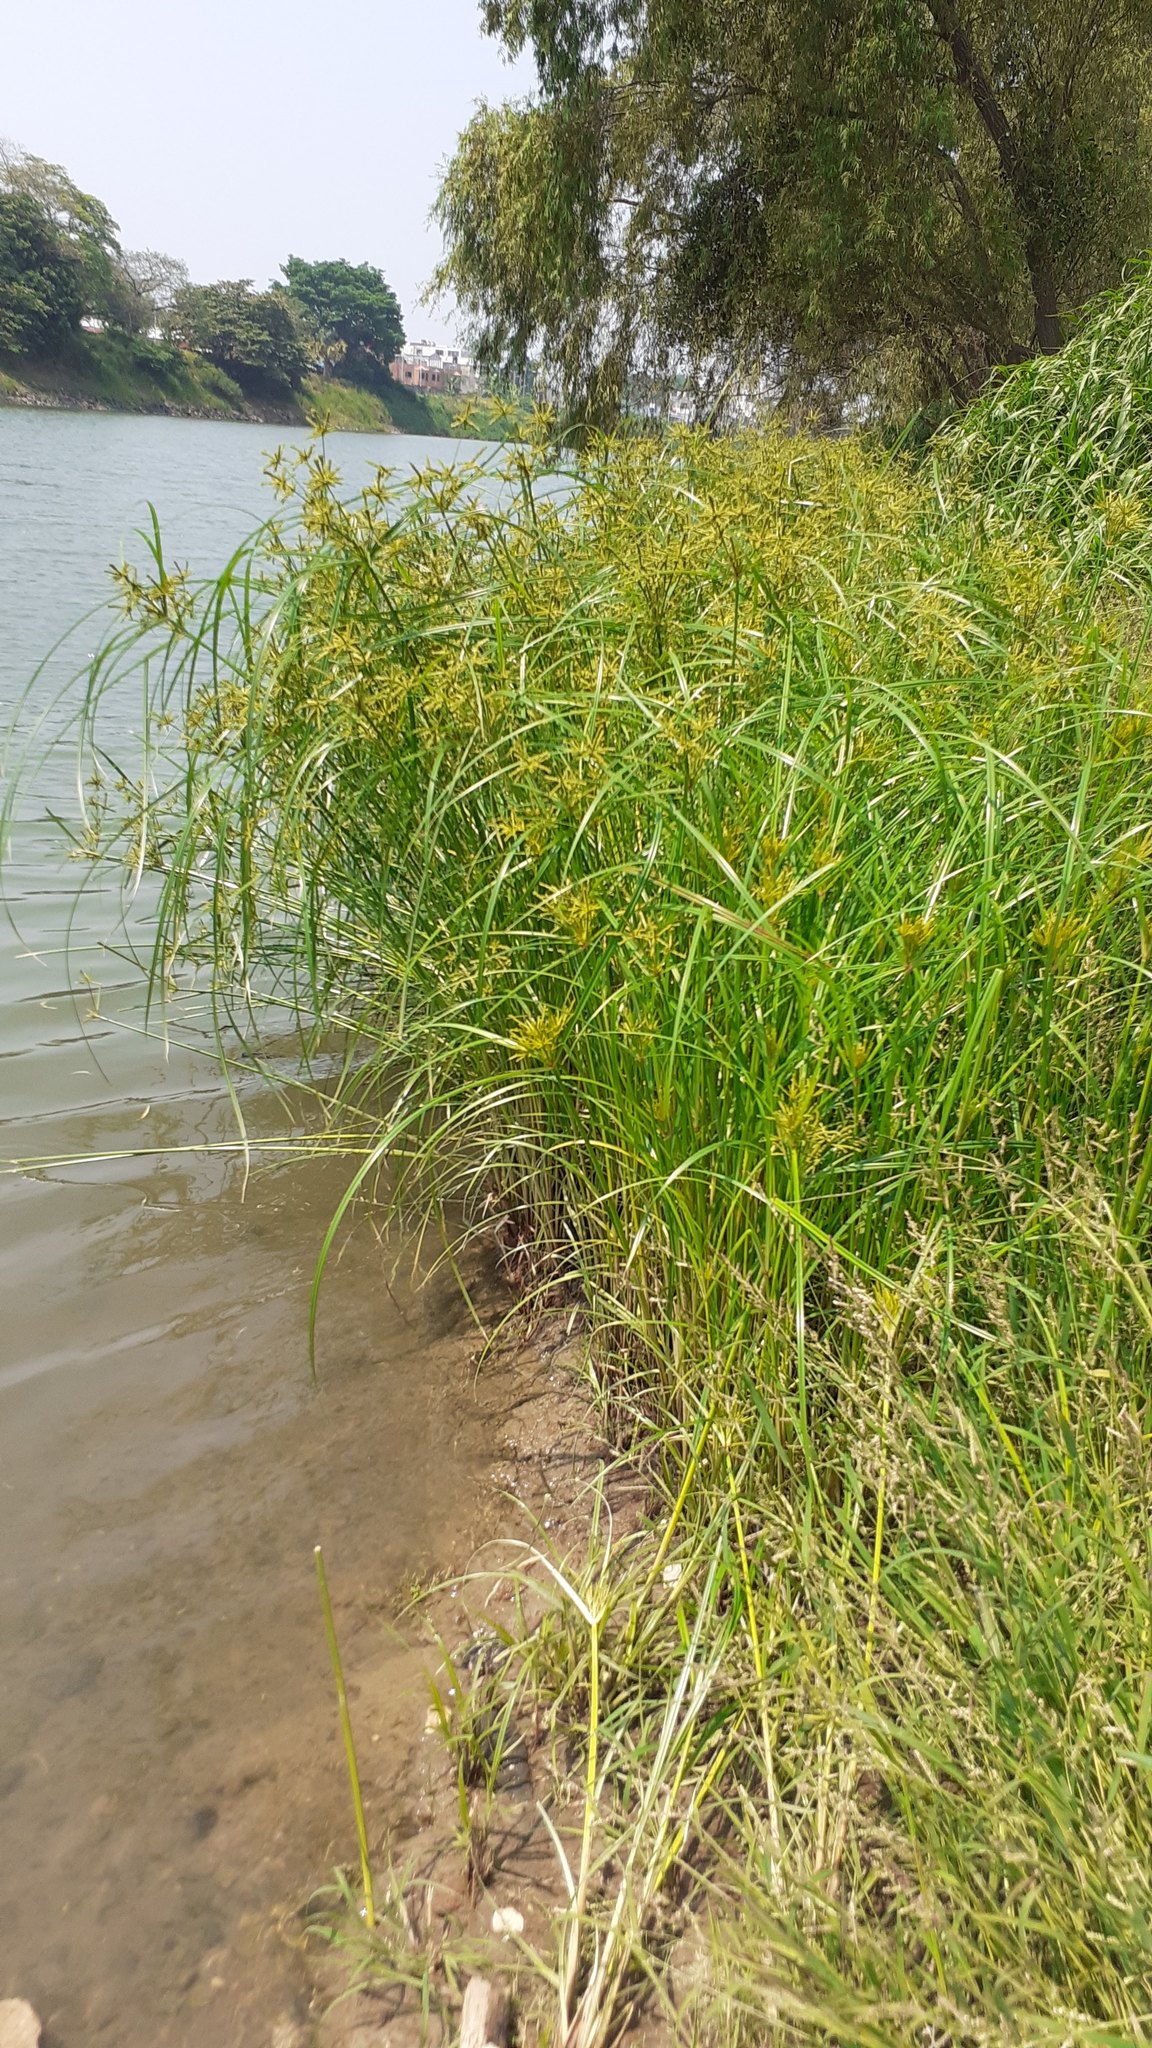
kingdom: Plantae
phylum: Tracheophyta
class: Liliopsida
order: Poales
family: Cyperaceae
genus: Cyperus
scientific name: Cyperus imbricatus
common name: Shingle flatsedge
